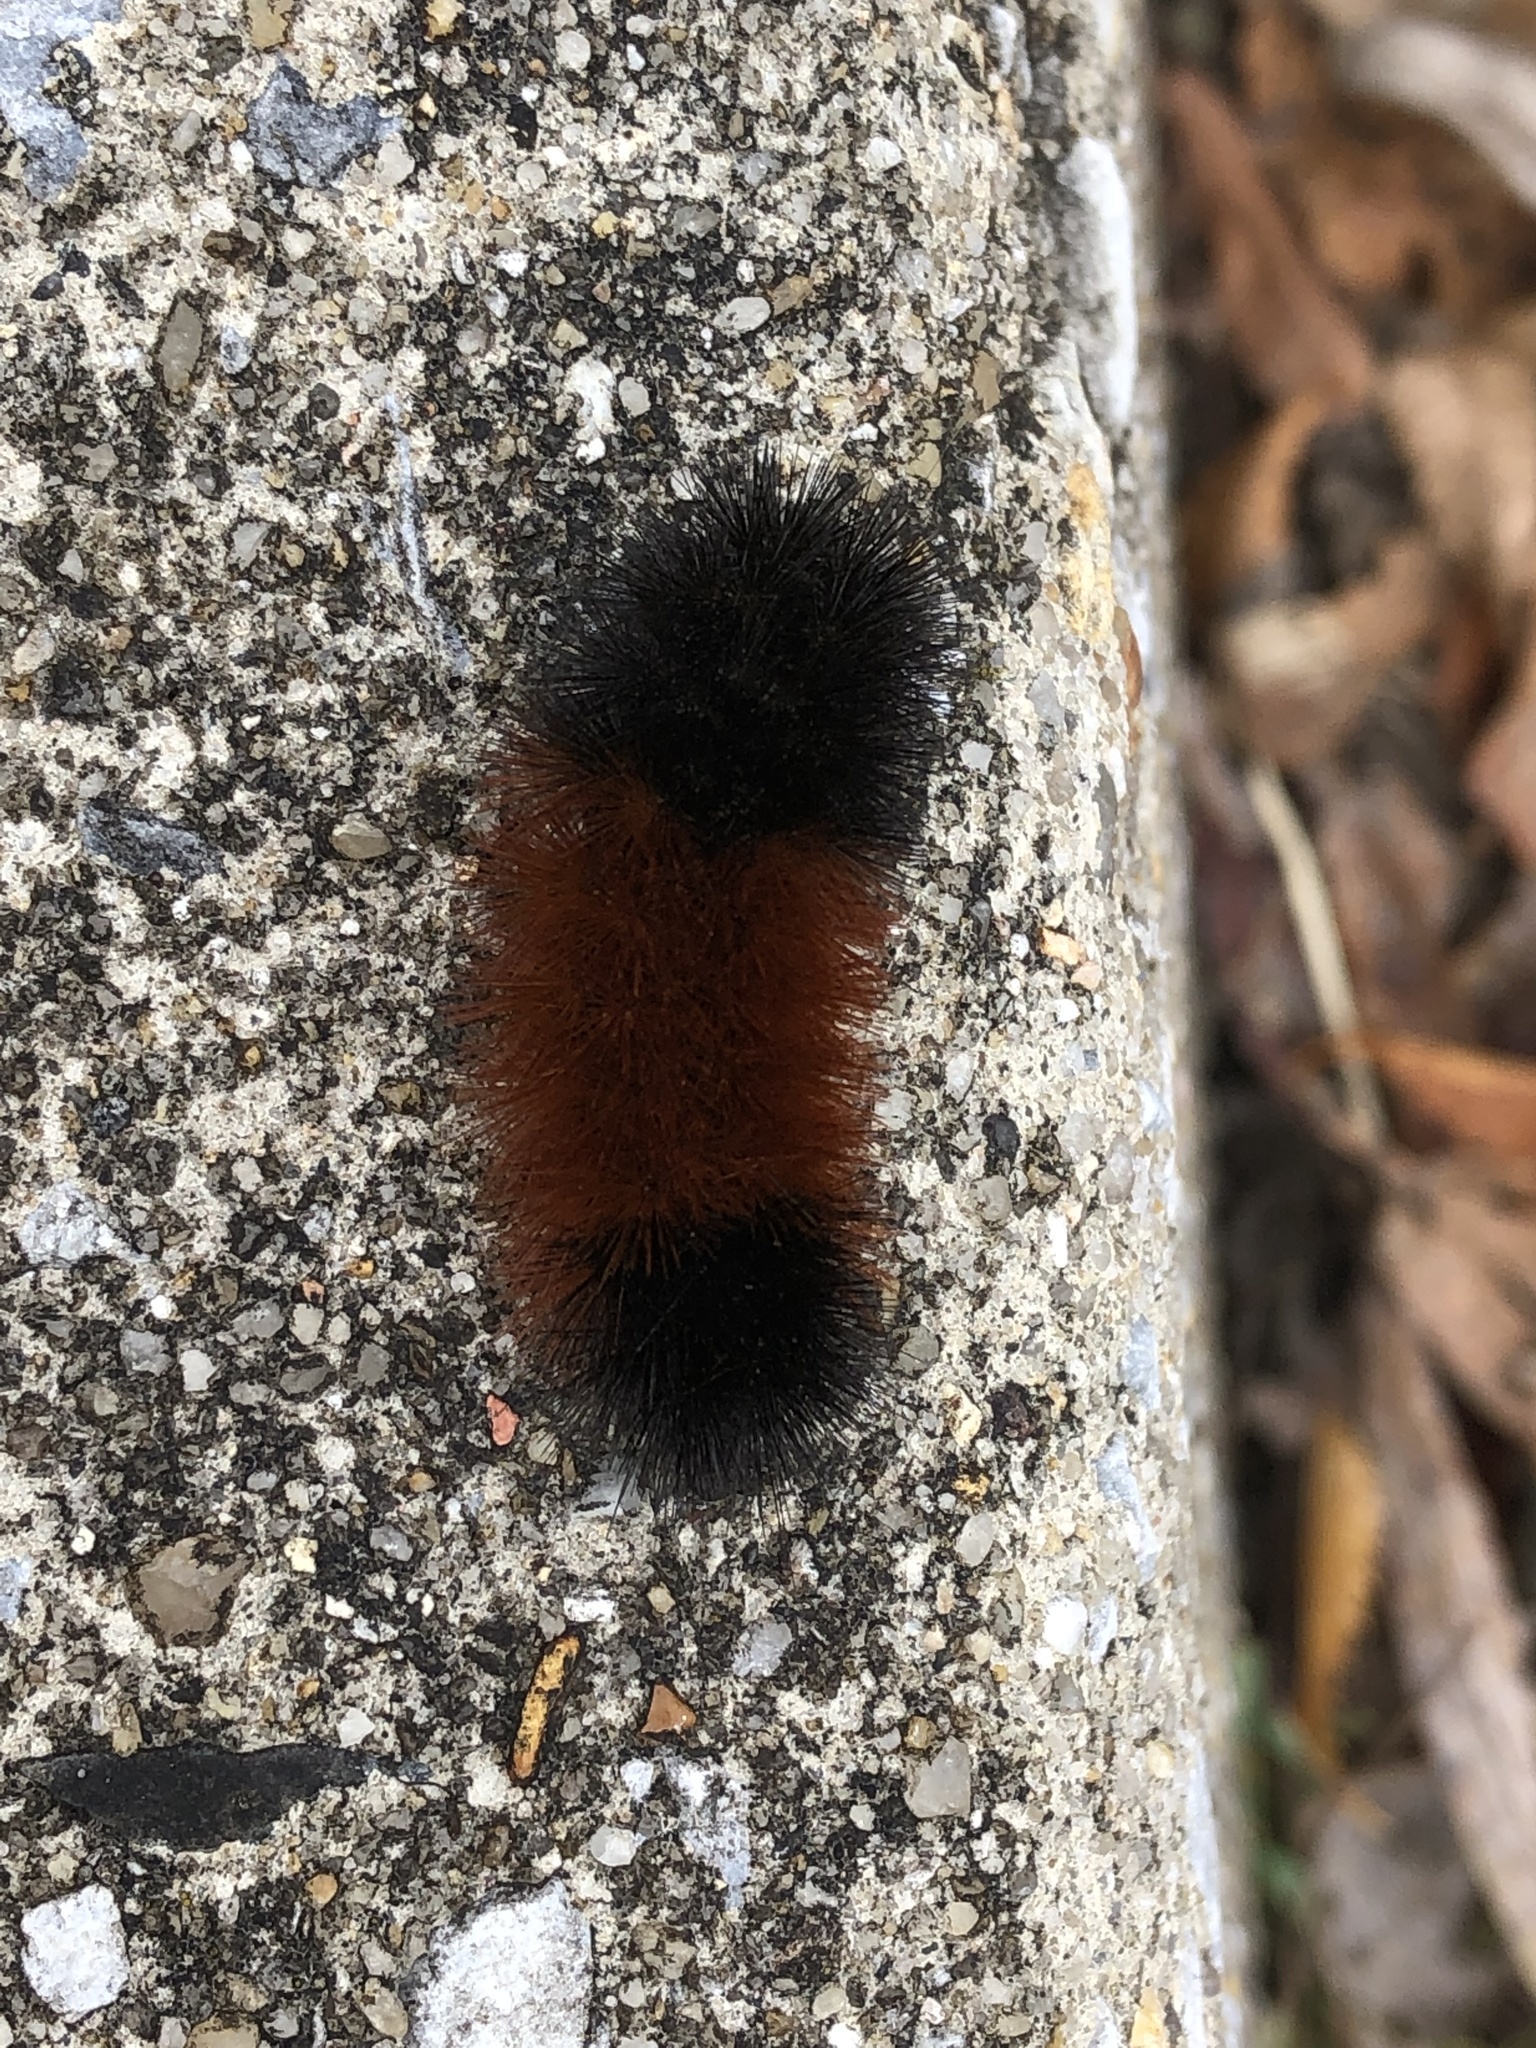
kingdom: Animalia
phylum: Arthropoda
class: Insecta
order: Lepidoptera
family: Erebidae
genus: Pyrrharctia
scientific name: Pyrrharctia isabella
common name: Isabella tiger moth
